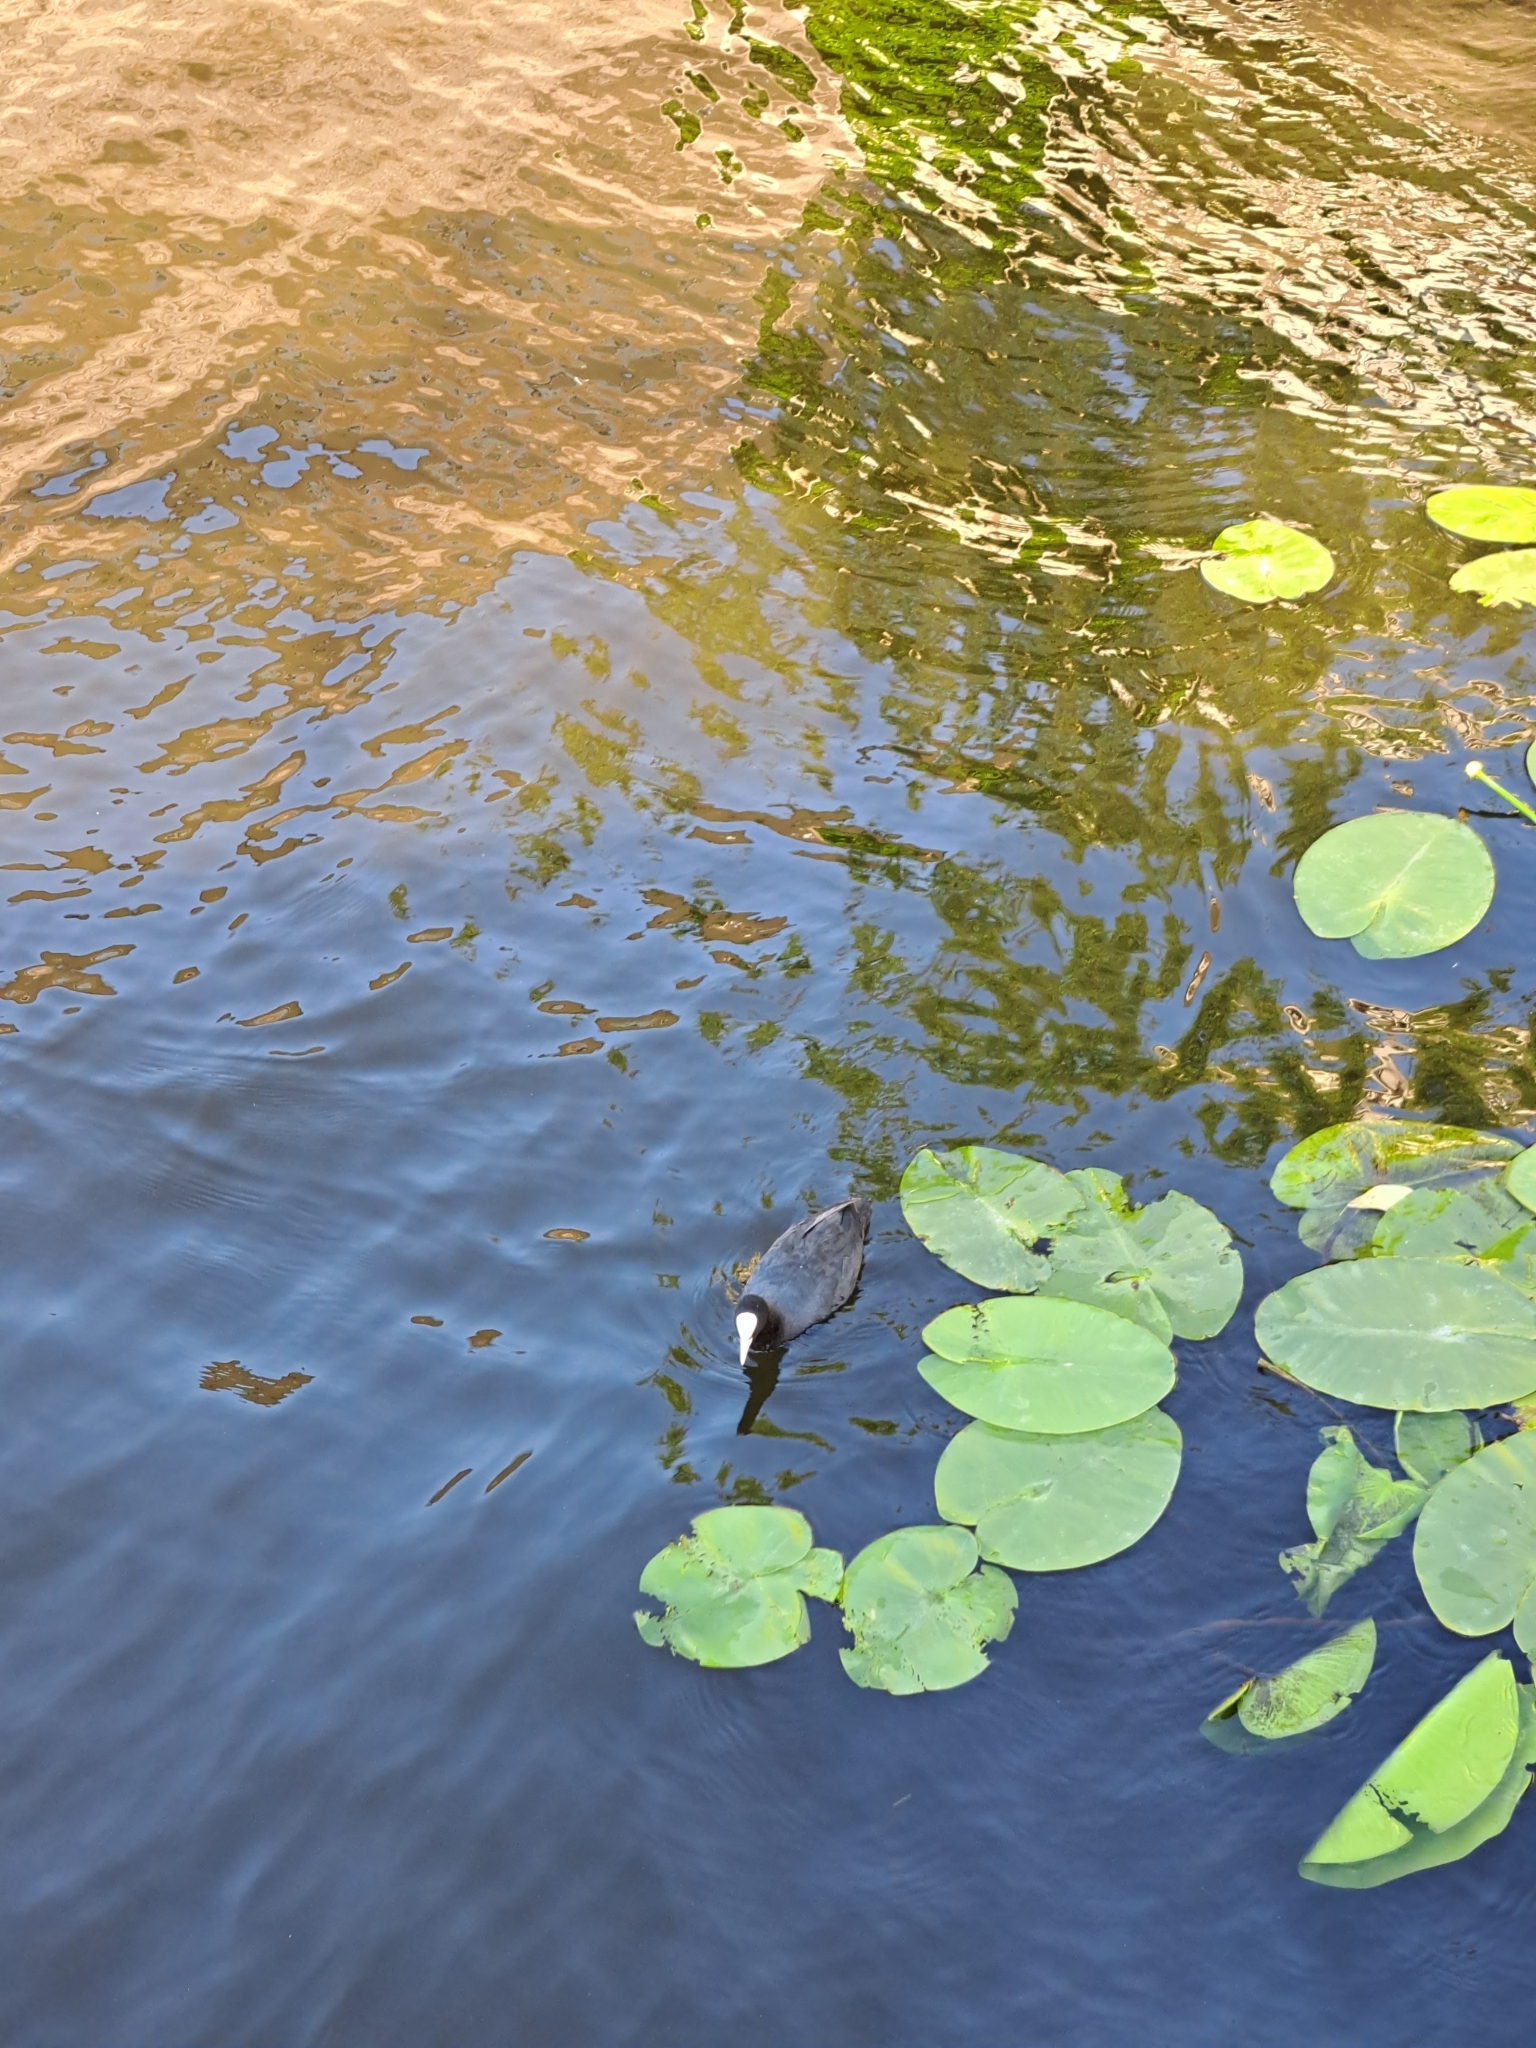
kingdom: Animalia
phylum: Chordata
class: Aves
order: Gruiformes
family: Rallidae
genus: Fulica
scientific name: Fulica atra
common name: Eurasian coot
